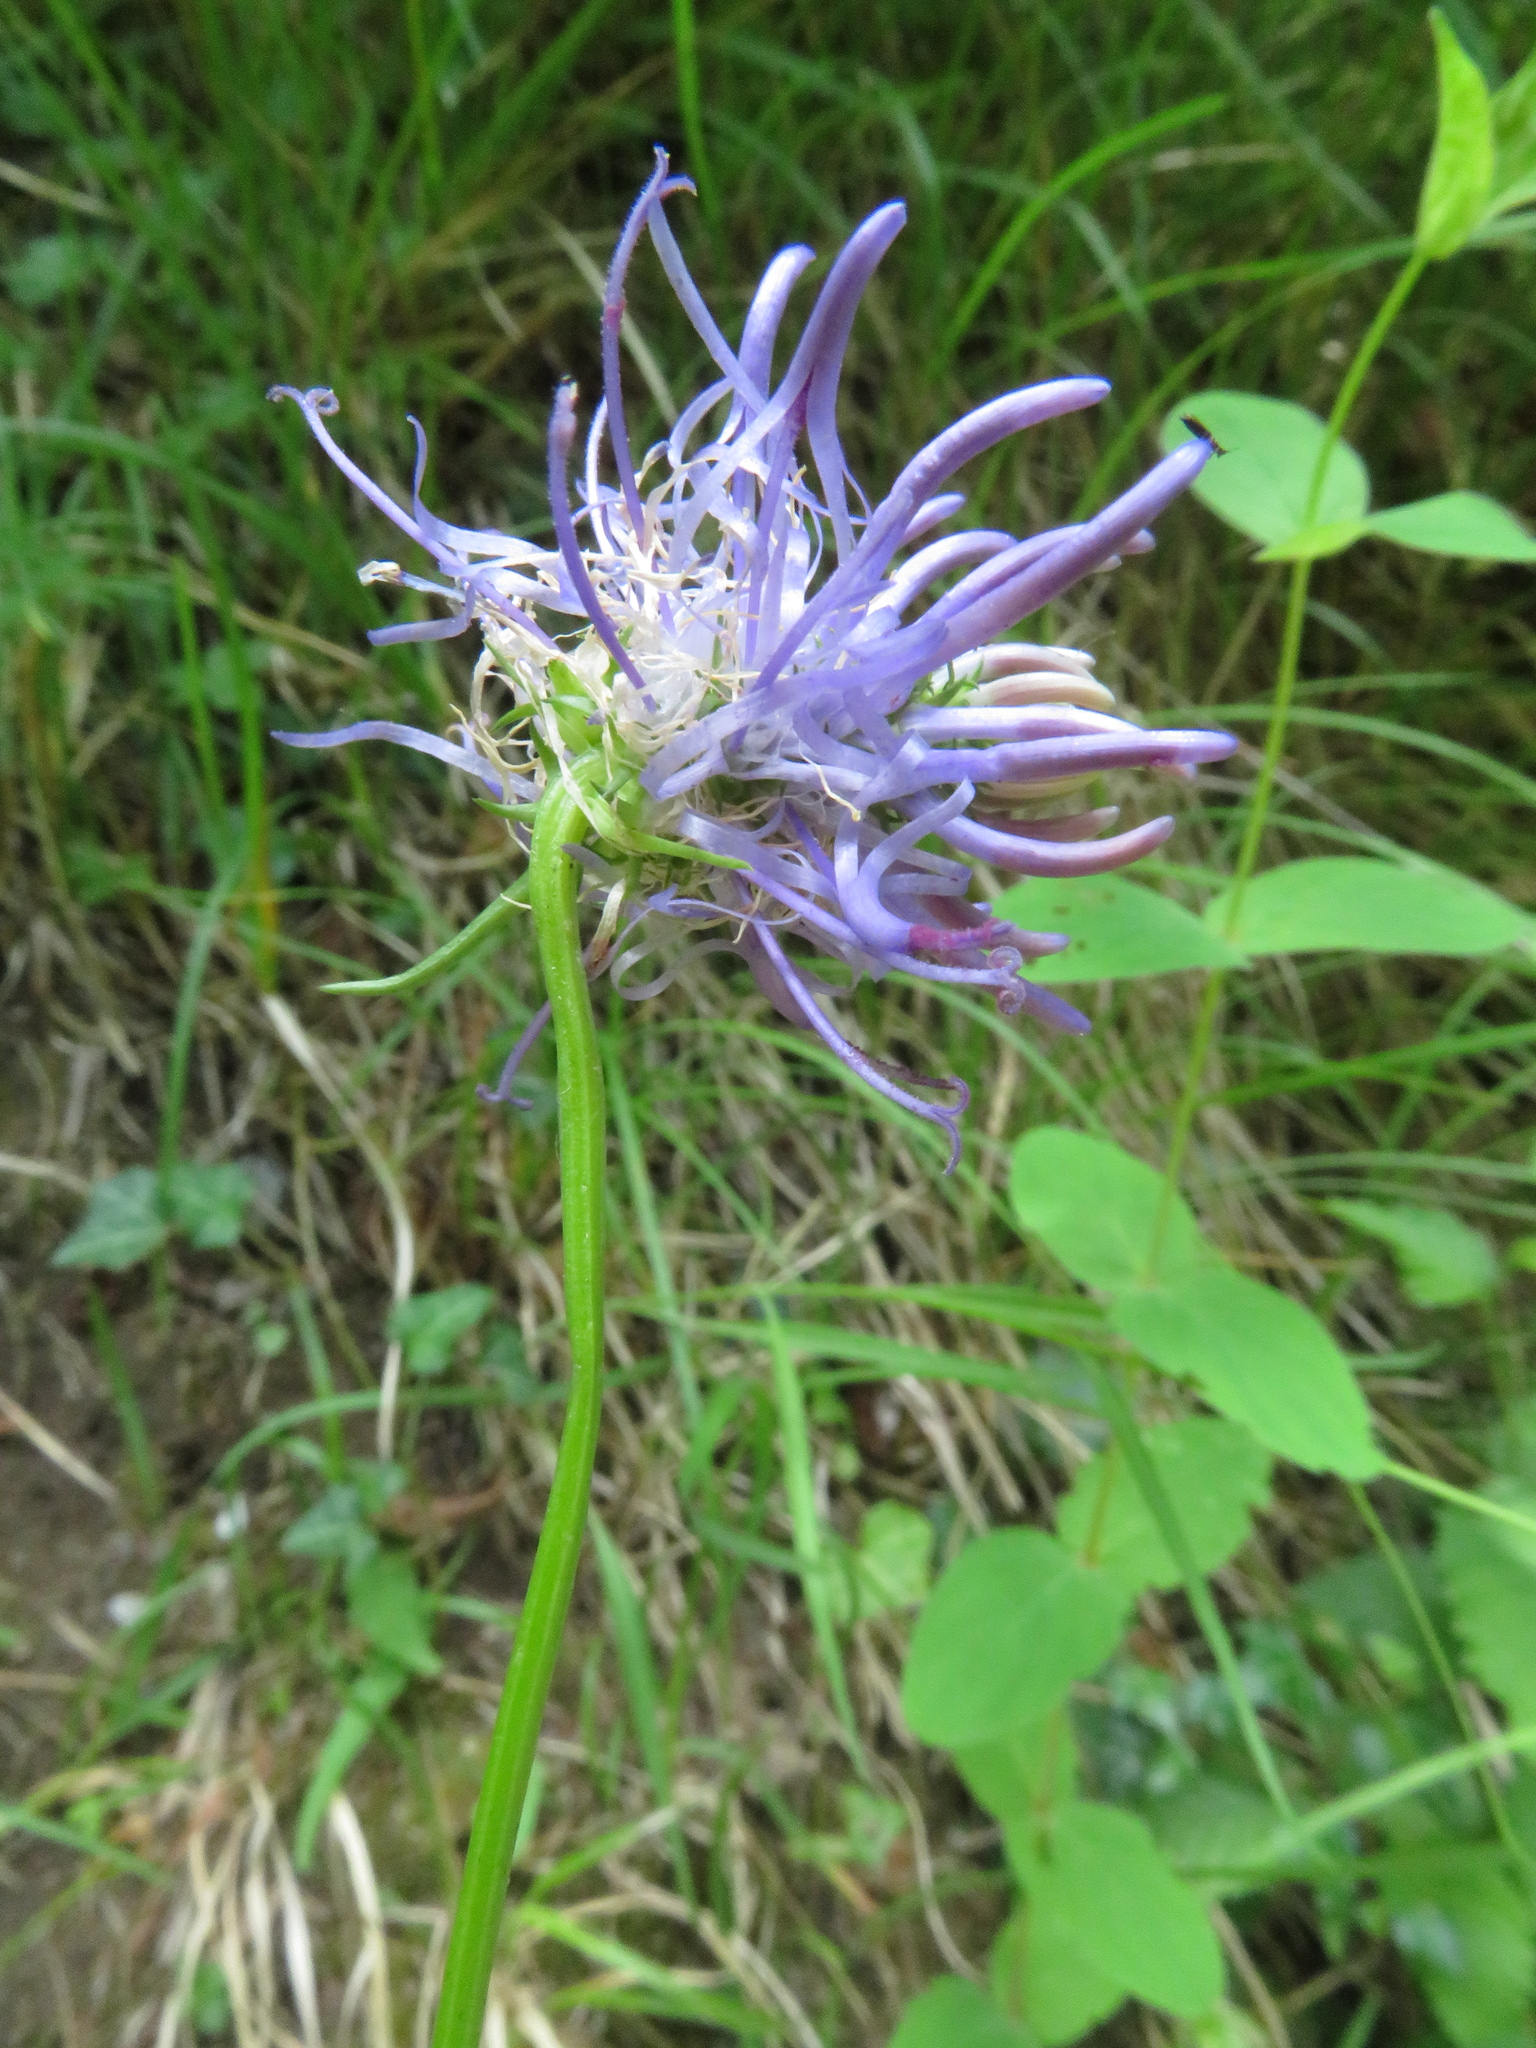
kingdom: Plantae
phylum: Tracheophyta
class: Magnoliopsida
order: Asterales
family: Campanulaceae
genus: Phyteuma
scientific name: Phyteuma scorzonerifolium
